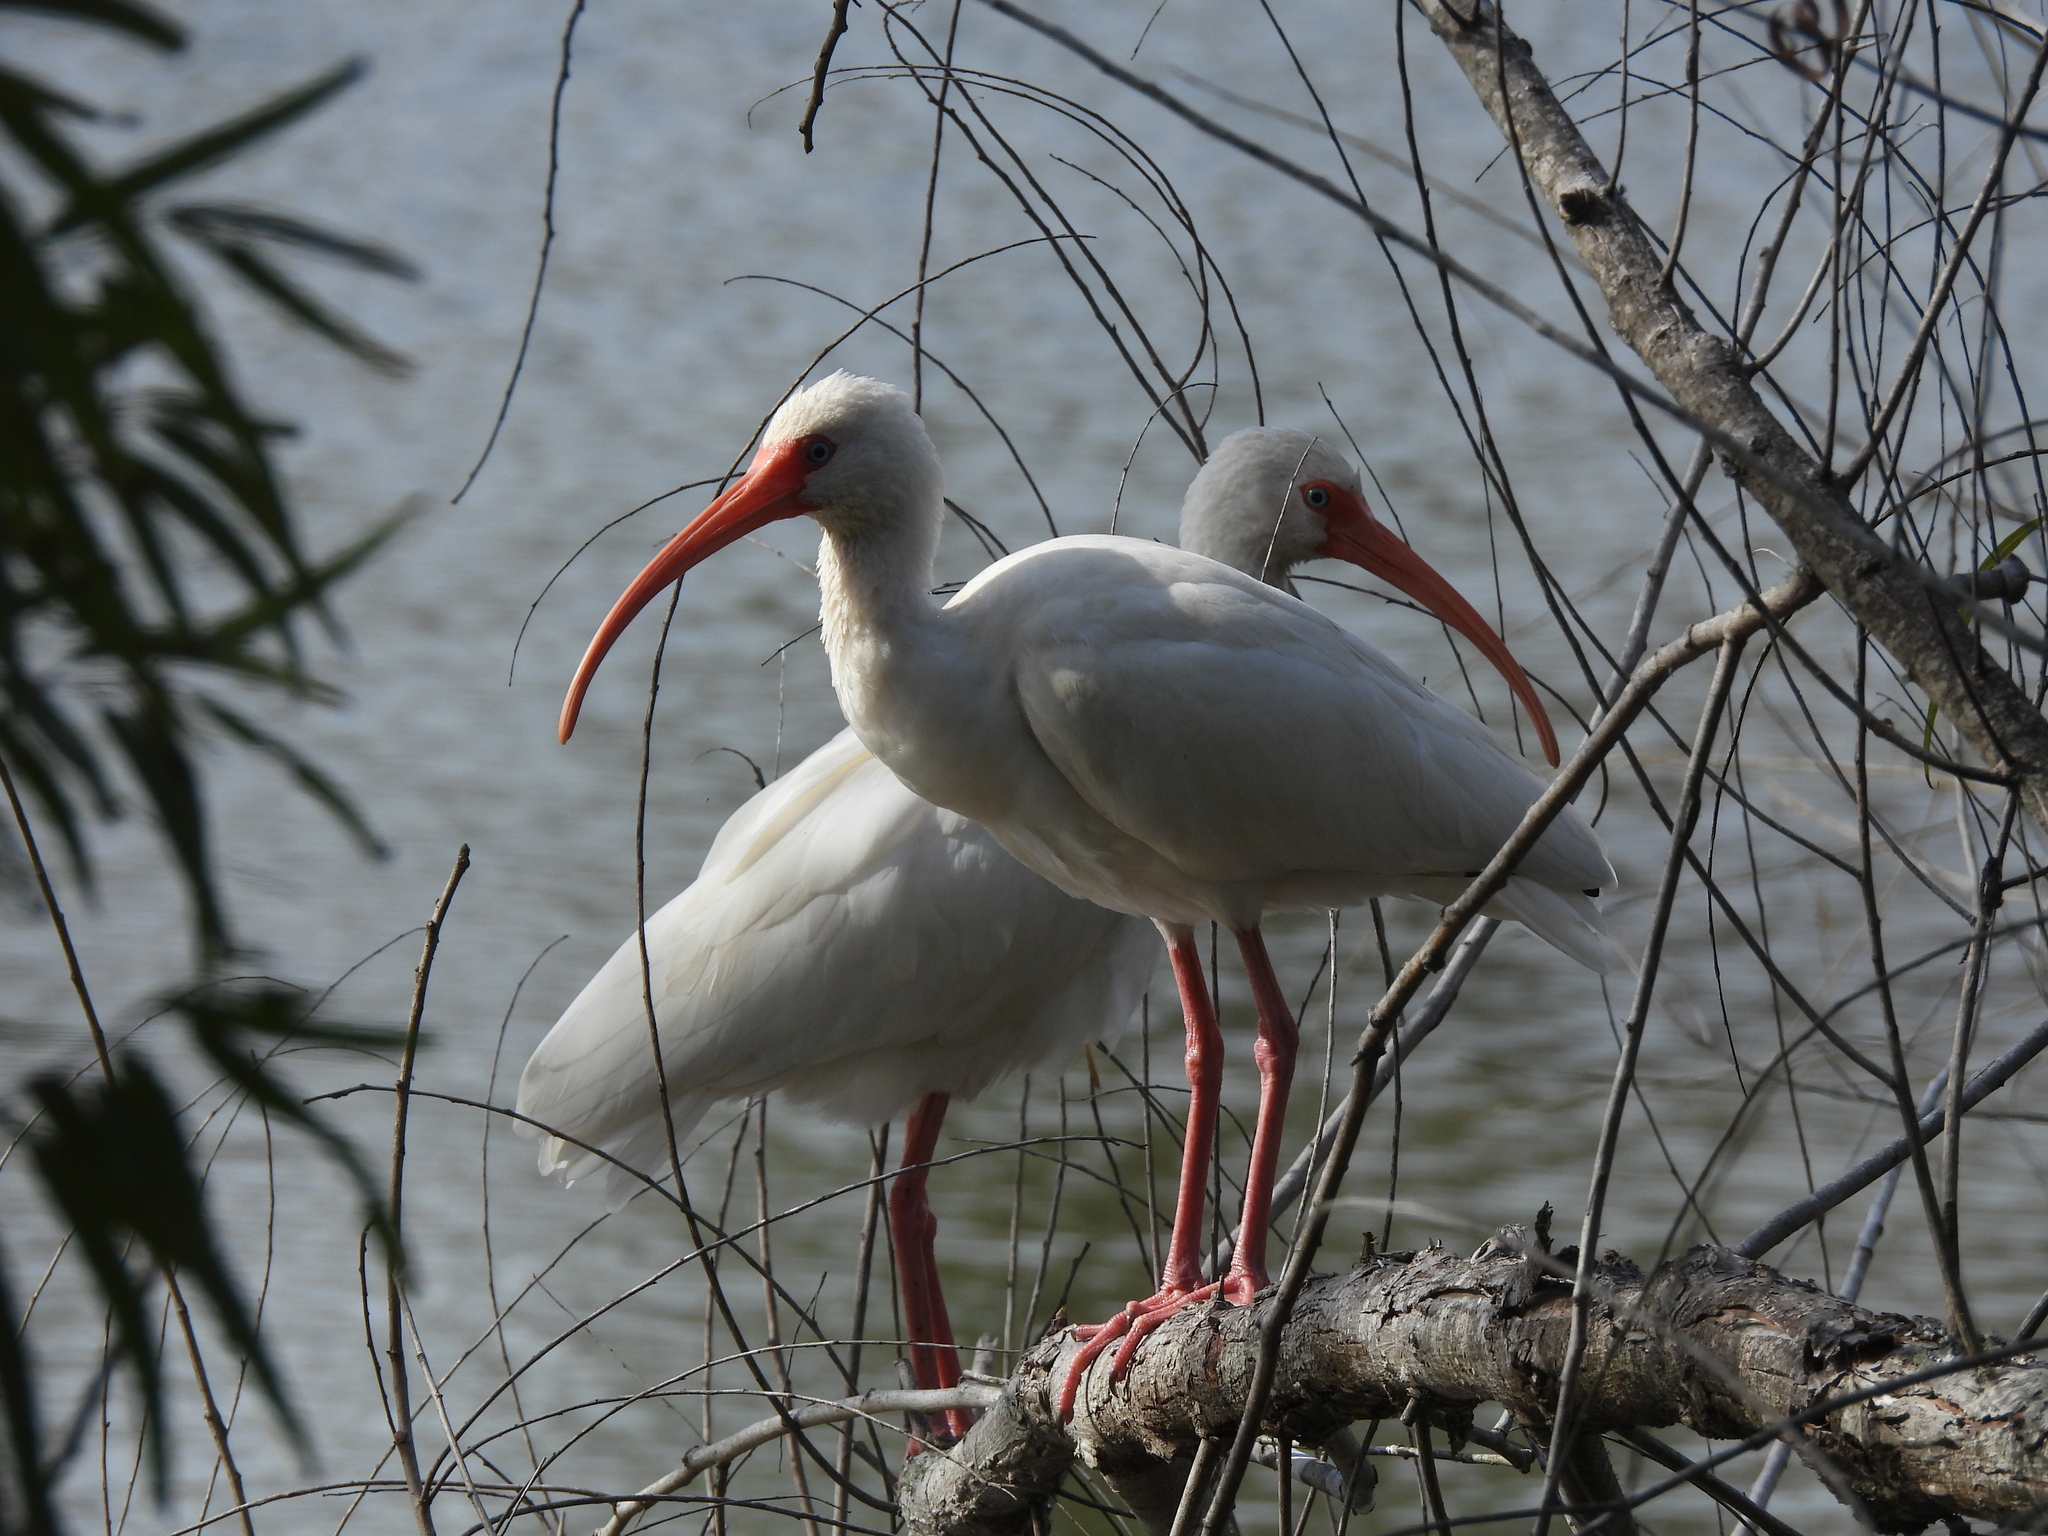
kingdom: Animalia
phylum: Chordata
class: Aves
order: Pelecaniformes
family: Threskiornithidae
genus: Eudocimus
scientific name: Eudocimus albus
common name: White ibis
